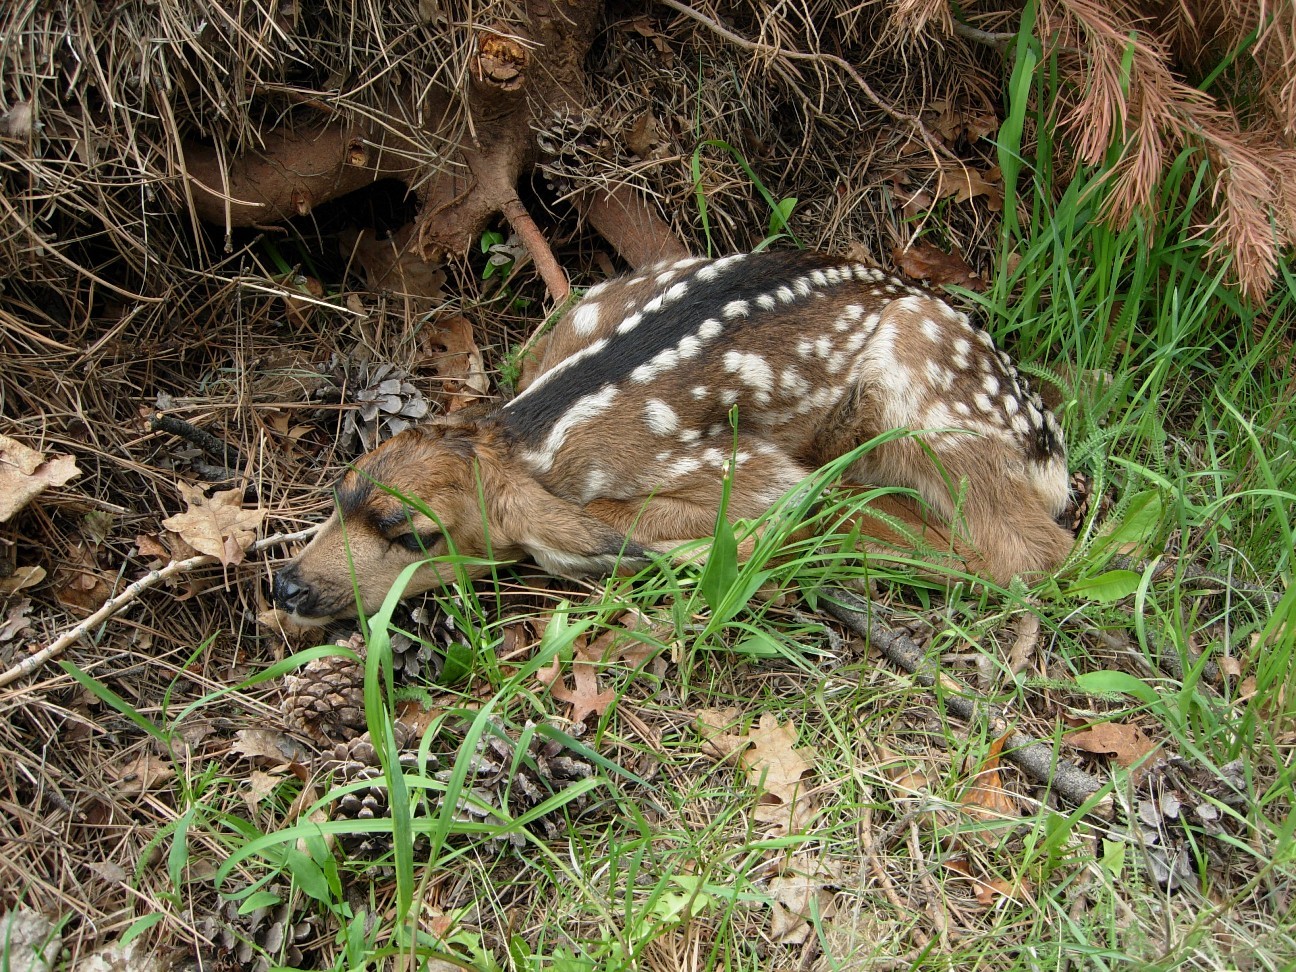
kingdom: Animalia
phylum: Chordata
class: Mammalia
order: Artiodactyla
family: Cervidae
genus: Odocoileus
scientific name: Odocoileus hemionus
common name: Mule deer
